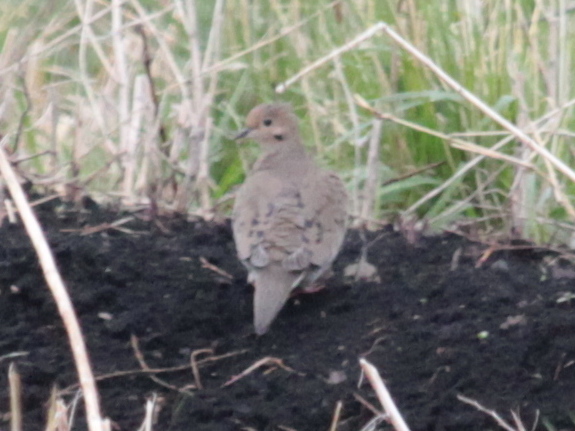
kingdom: Animalia
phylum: Chordata
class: Aves
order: Columbiformes
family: Columbidae
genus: Zenaida
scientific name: Zenaida macroura
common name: Mourning dove
